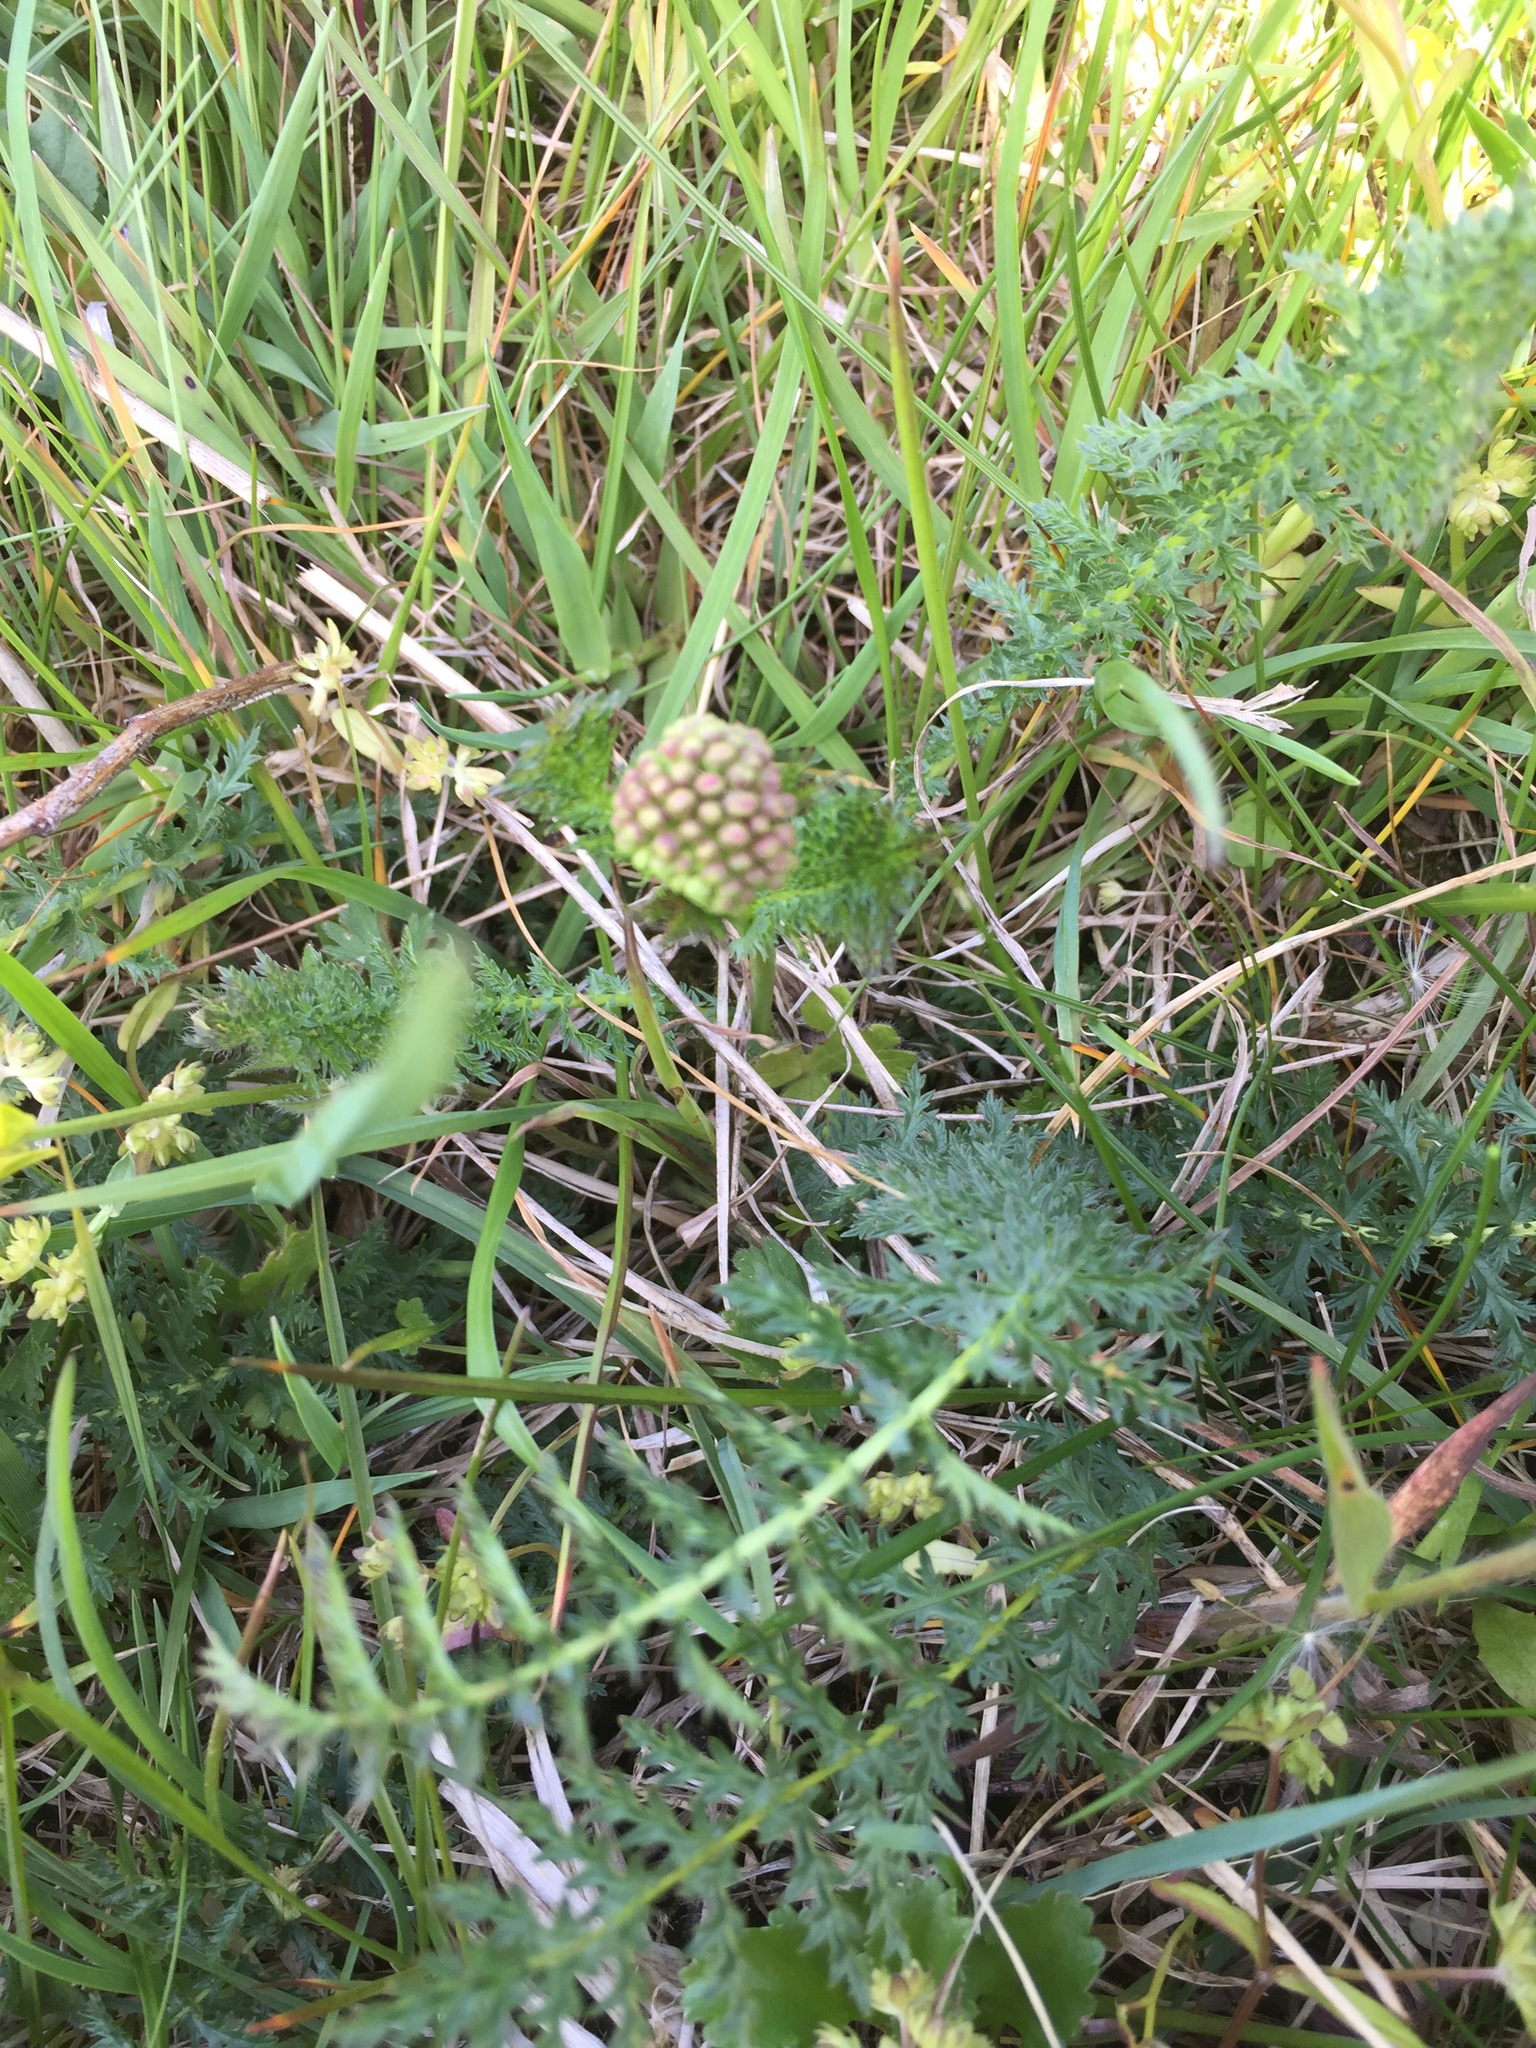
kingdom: Plantae
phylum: Tracheophyta
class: Magnoliopsida
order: Asterales
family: Asteraceae
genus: Achillea
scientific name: Achillea millefolium
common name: Yarrow
